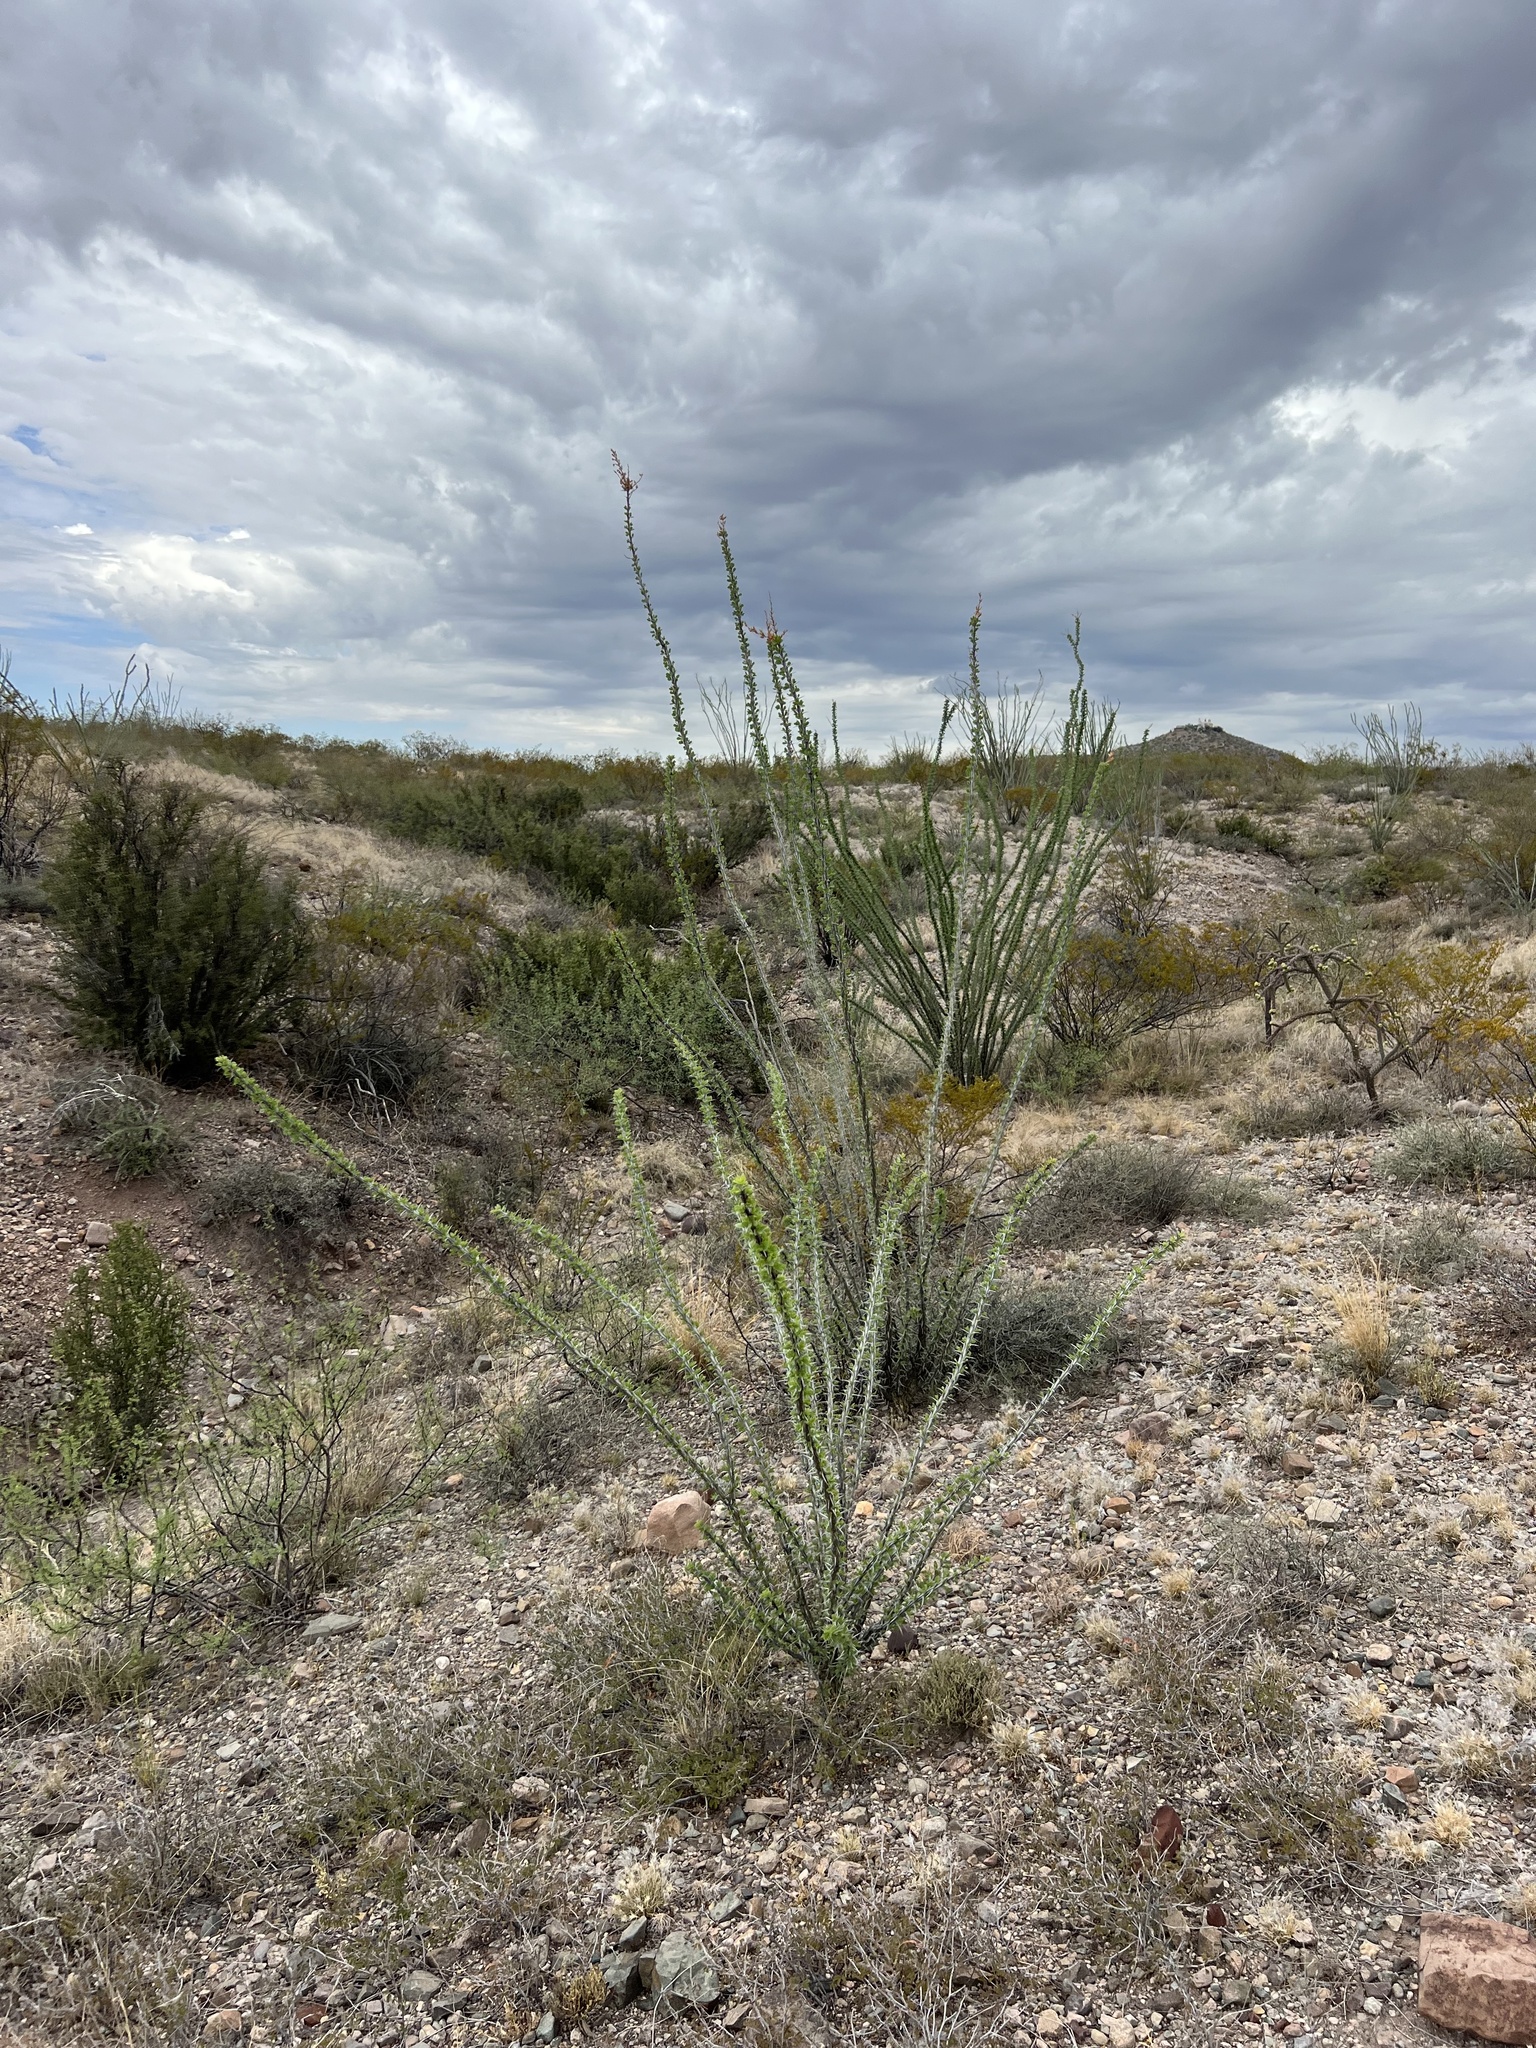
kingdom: Plantae
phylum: Tracheophyta
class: Magnoliopsida
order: Ericales
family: Fouquieriaceae
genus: Fouquieria
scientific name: Fouquieria splendens
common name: Vine-cactus
